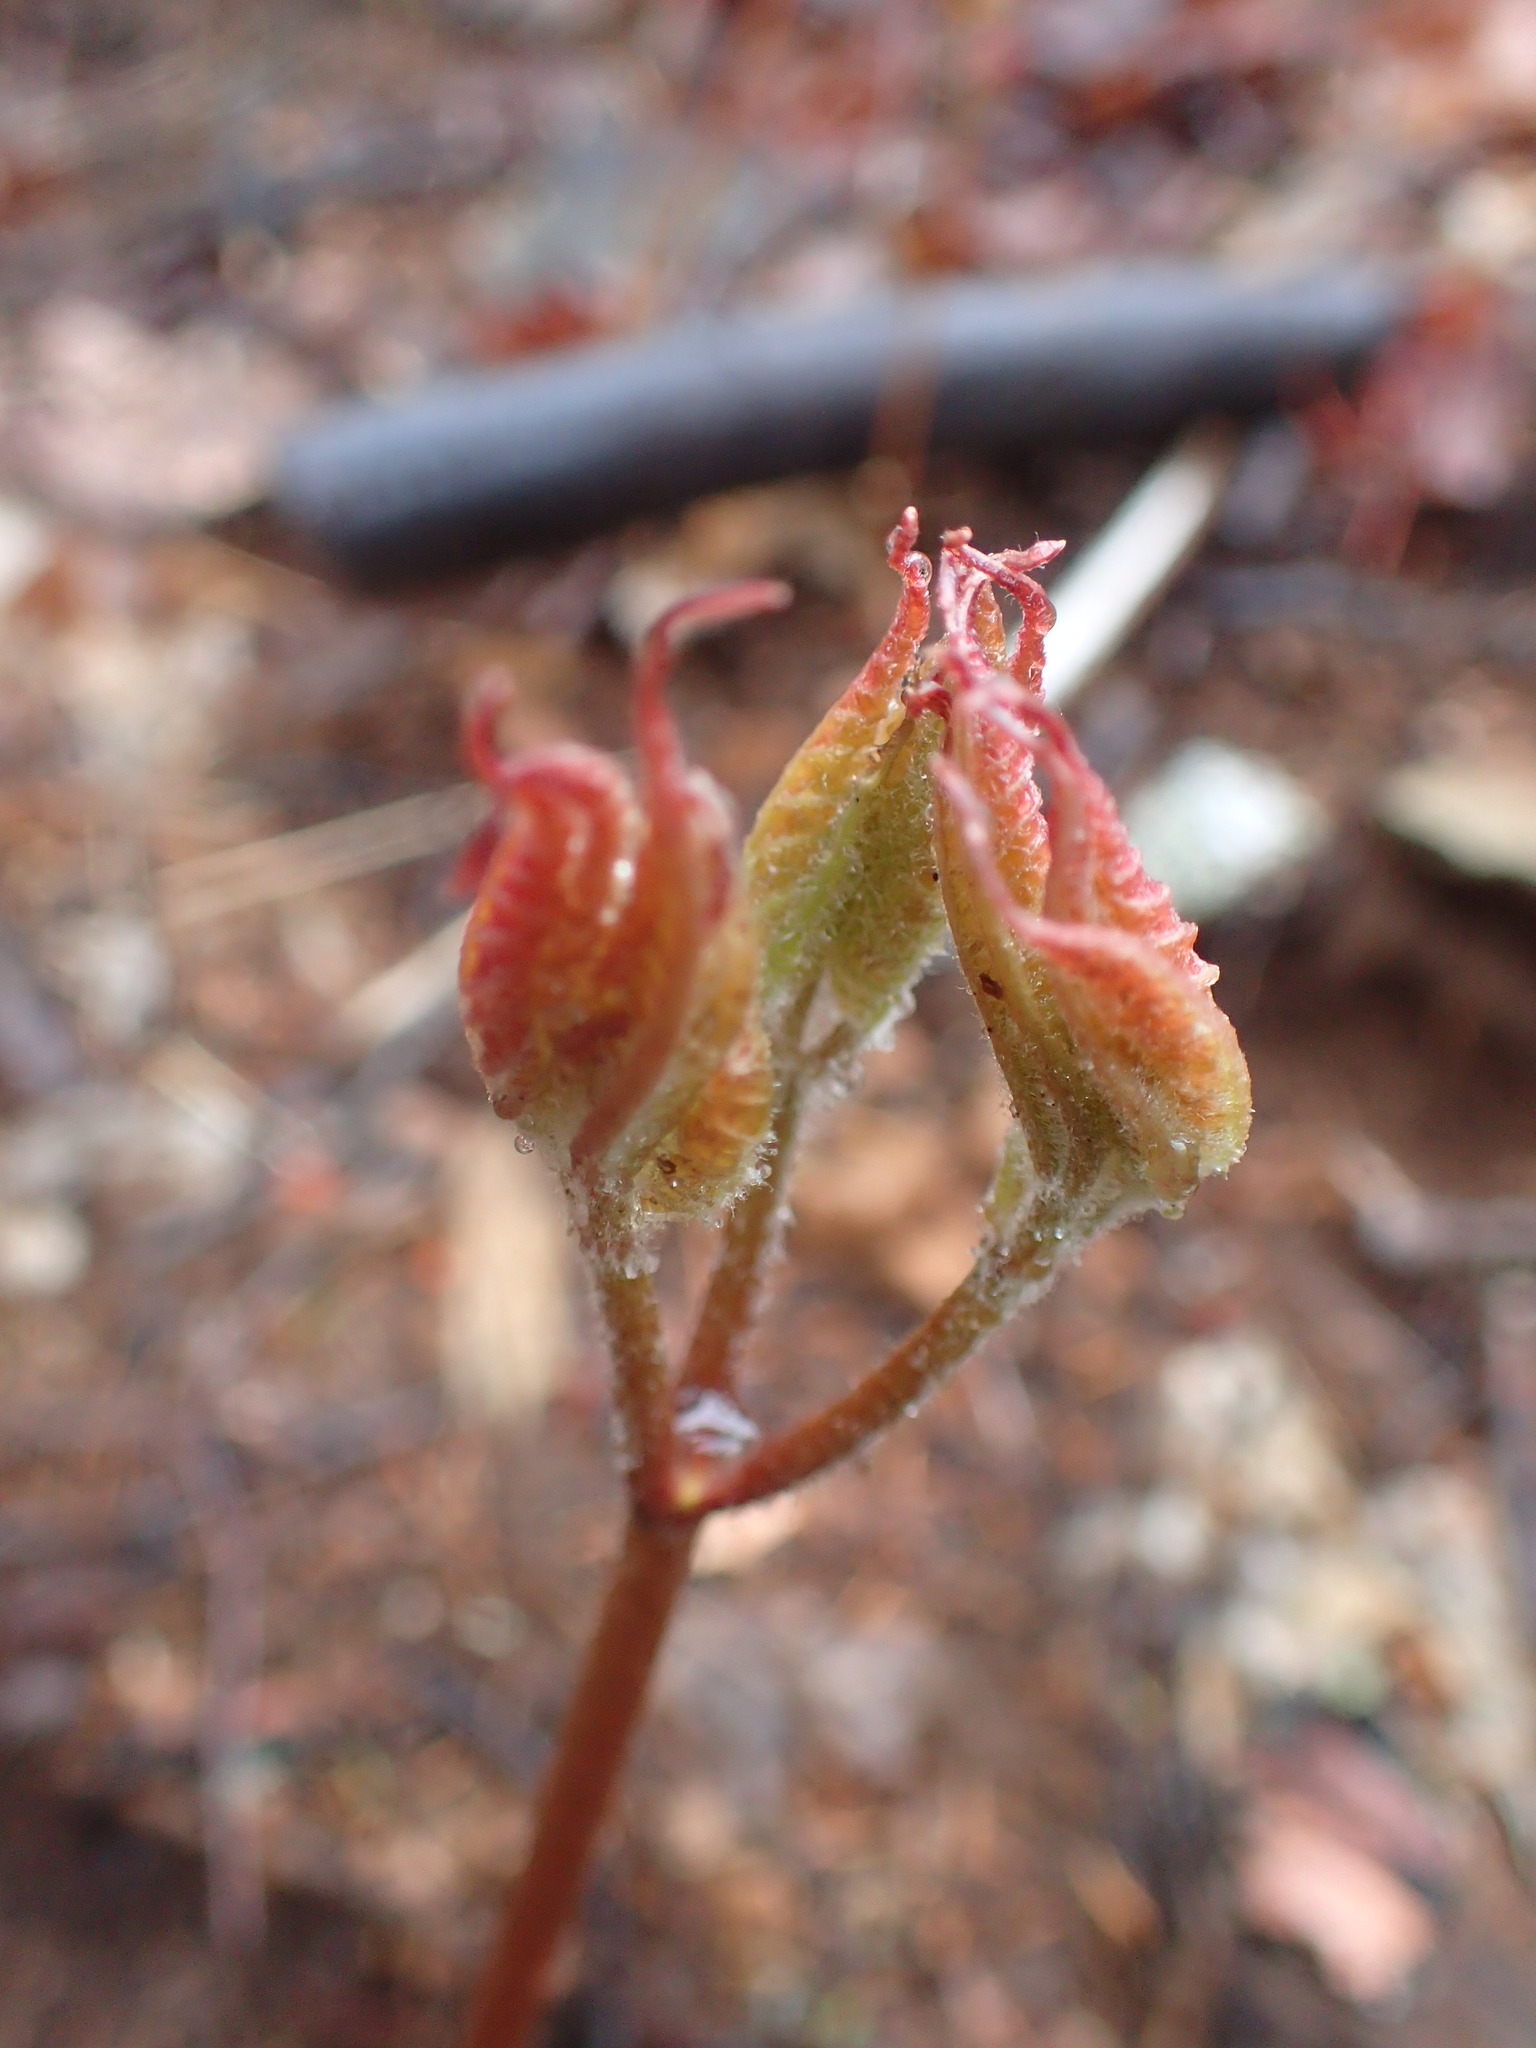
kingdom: Plantae
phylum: Tracheophyta
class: Magnoliopsida
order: Apiales
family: Araliaceae
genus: Aralia
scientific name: Aralia nudicaulis
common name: Wild sarsaparilla
